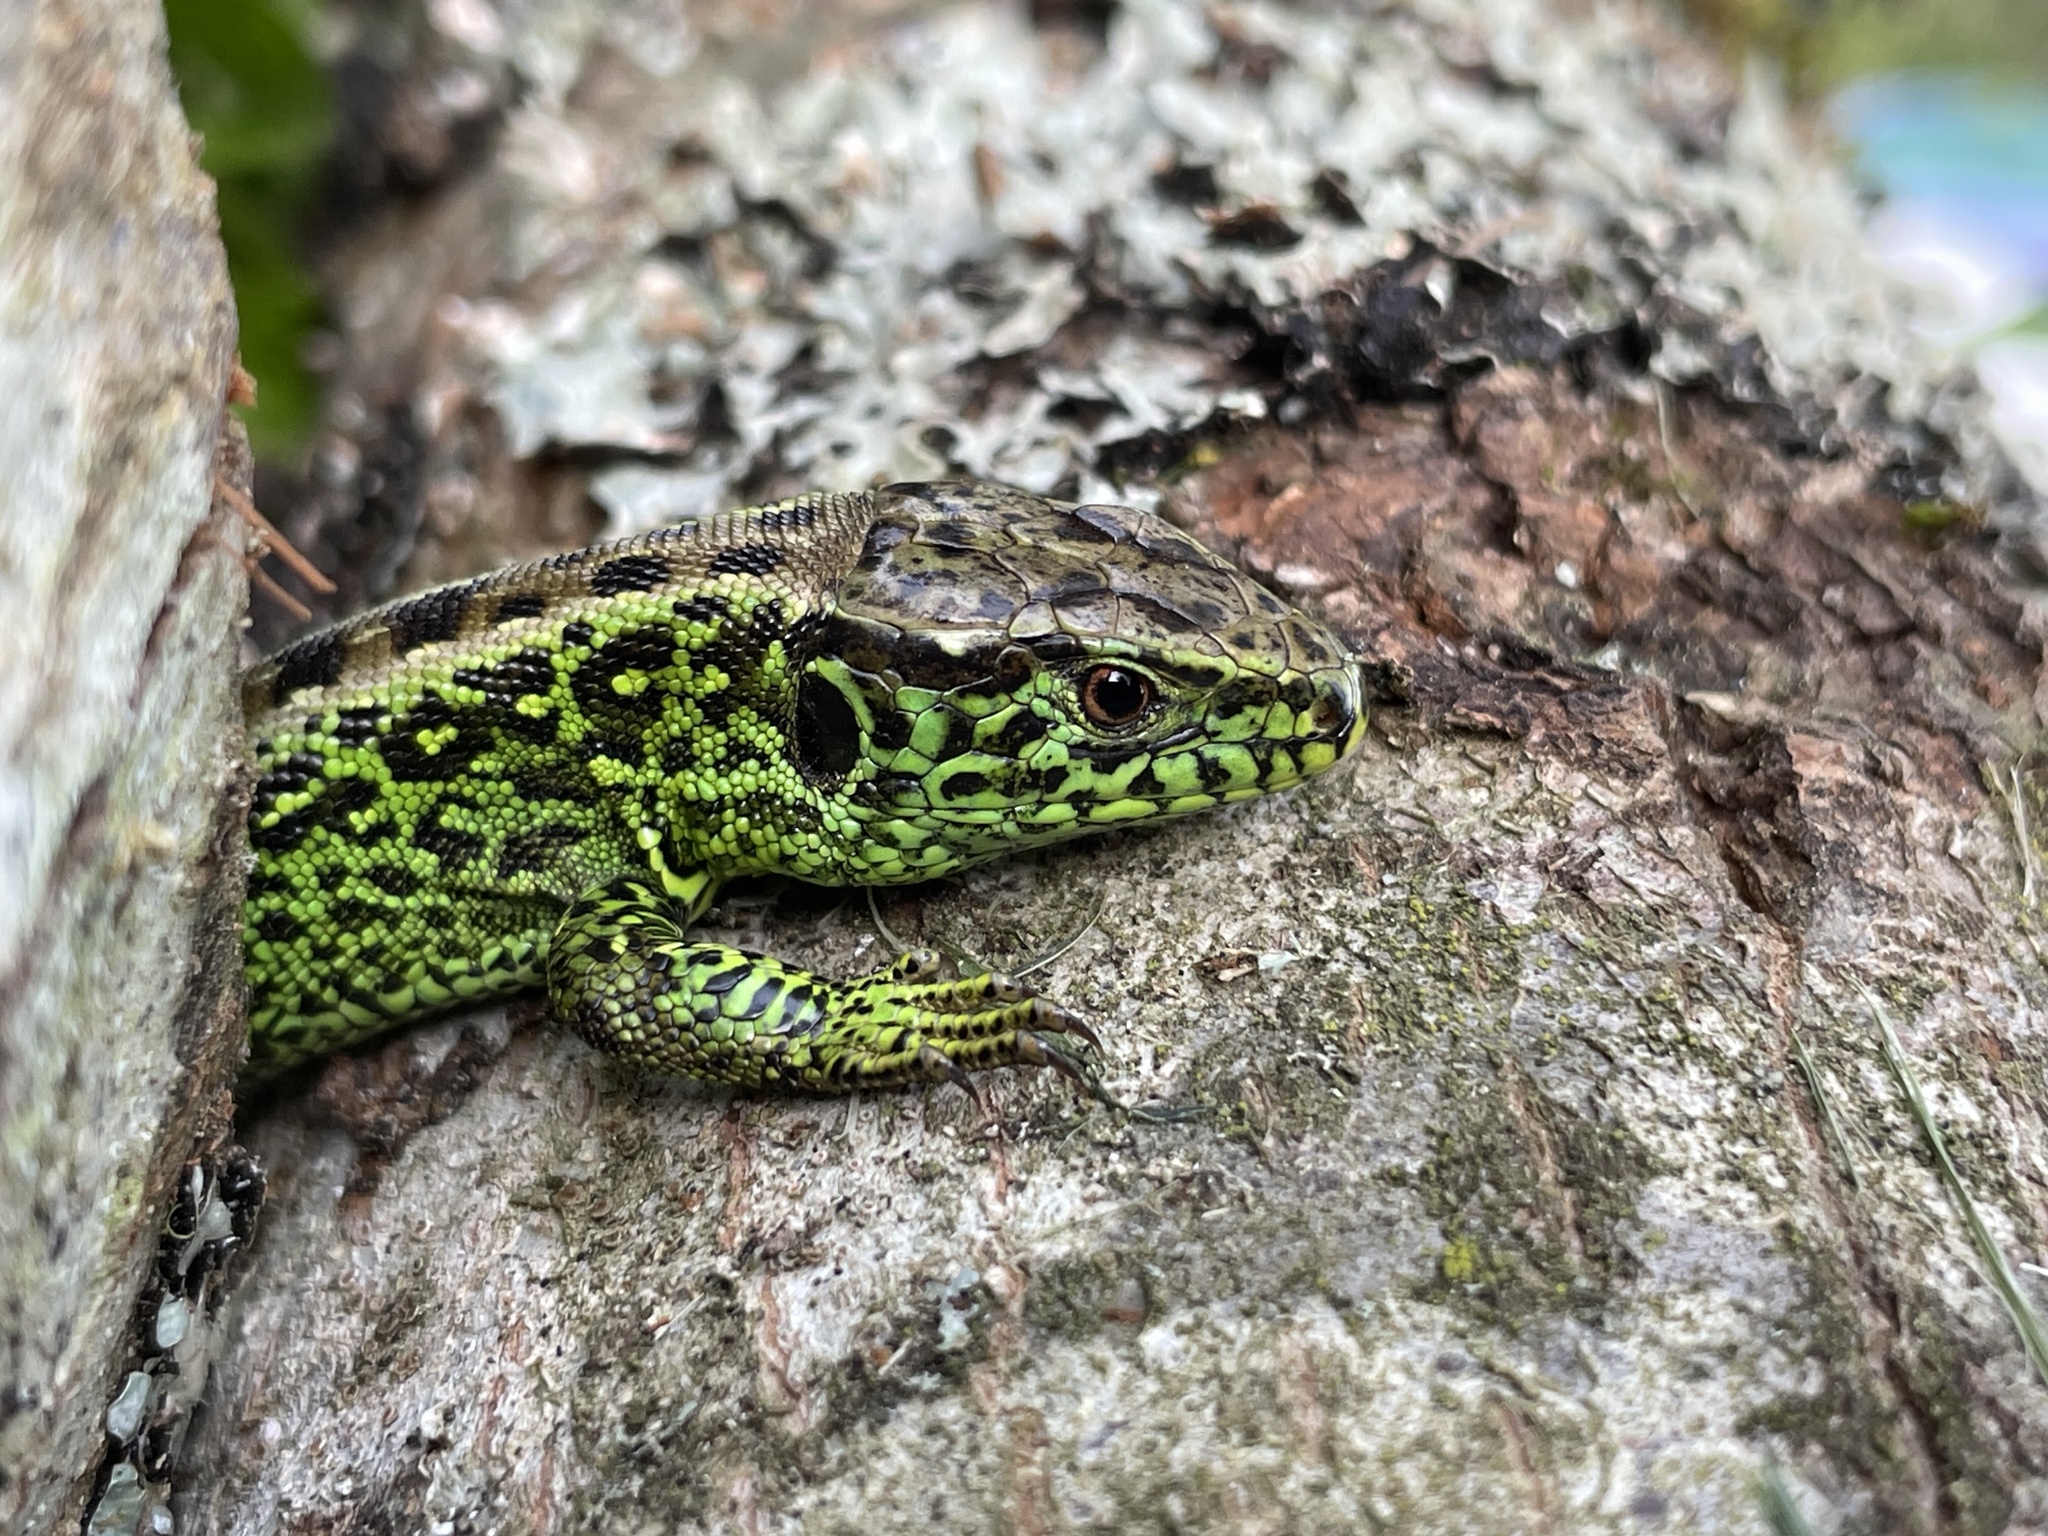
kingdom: Animalia
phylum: Chordata
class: Squamata
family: Lacertidae
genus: Lacerta
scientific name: Lacerta agilis
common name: Sand lizard
